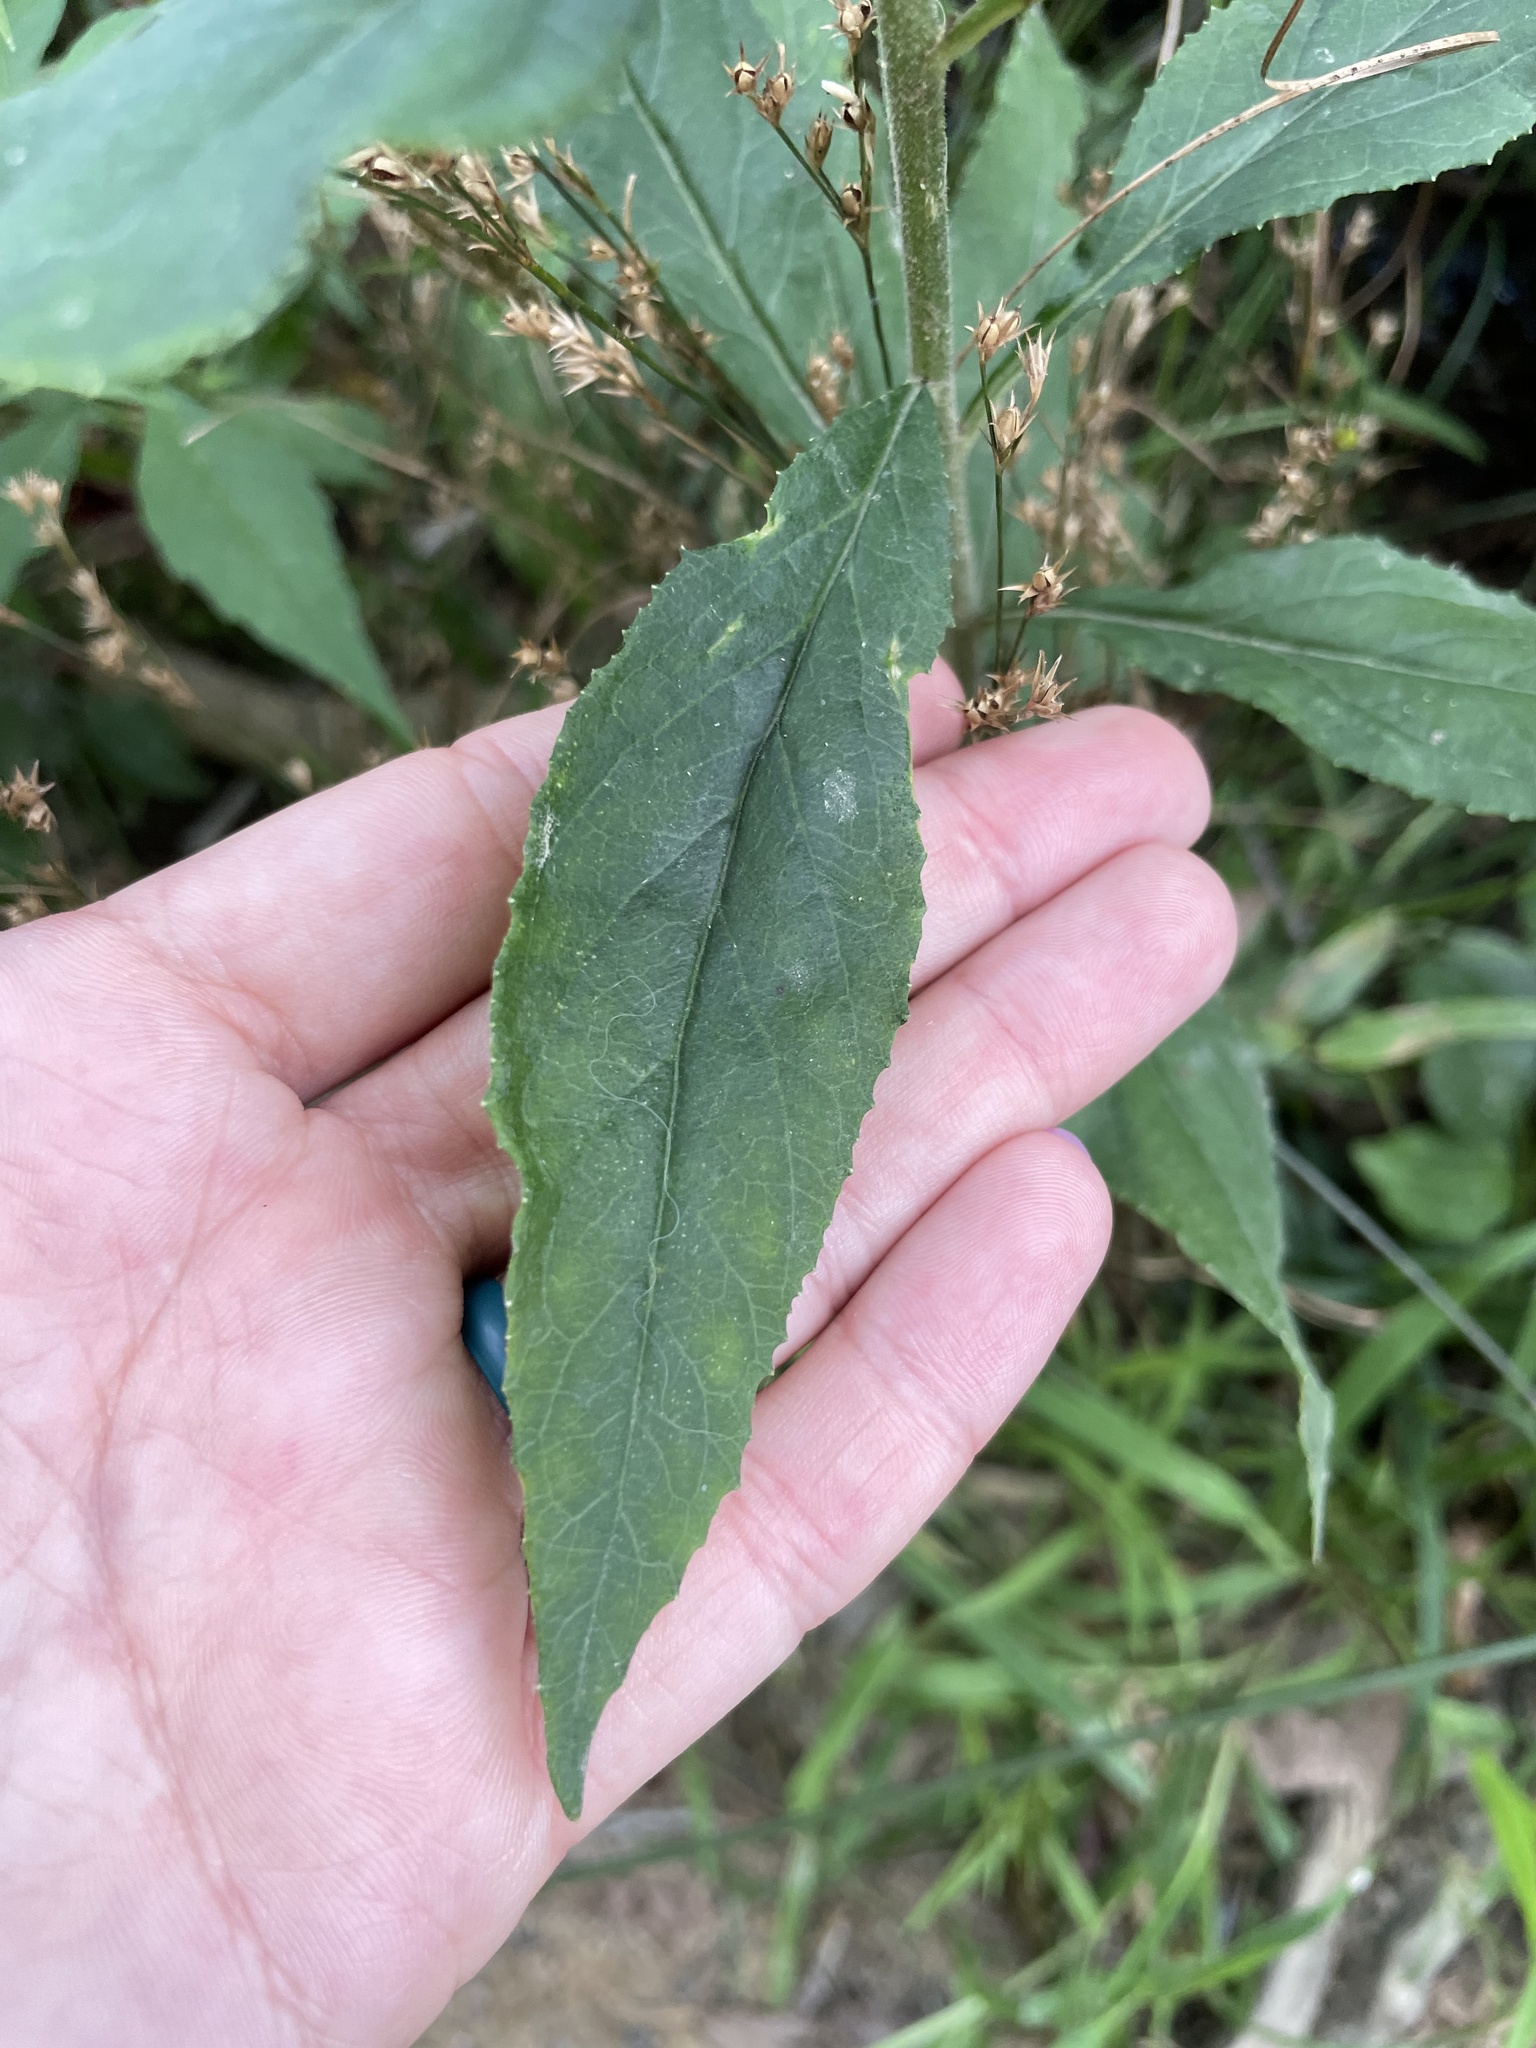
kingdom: Plantae
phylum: Tracheophyta
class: Magnoliopsida
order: Asterales
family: Campanulaceae
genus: Lobelia
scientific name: Lobelia cardinalis
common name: Cardinal flower
